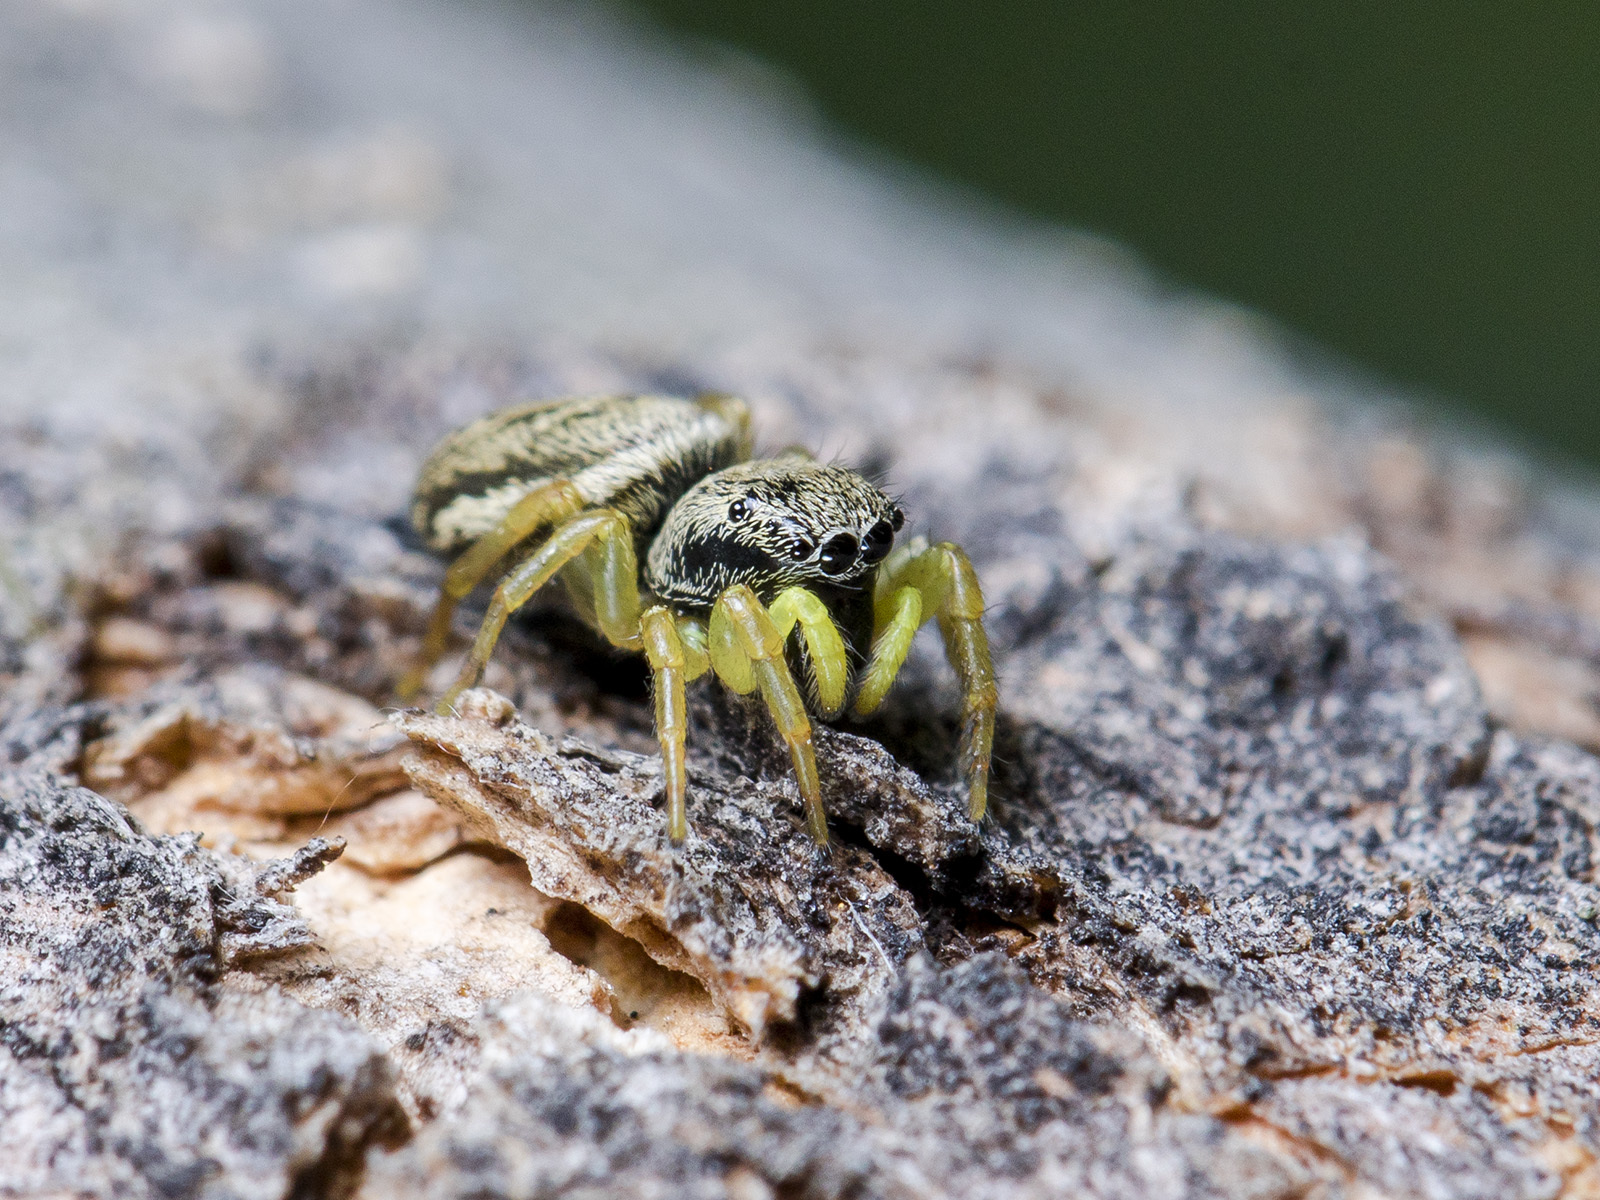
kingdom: Animalia
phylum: Arthropoda
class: Arachnida
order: Araneae
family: Salticidae
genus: Heliophanus
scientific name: Heliophanus potanini
